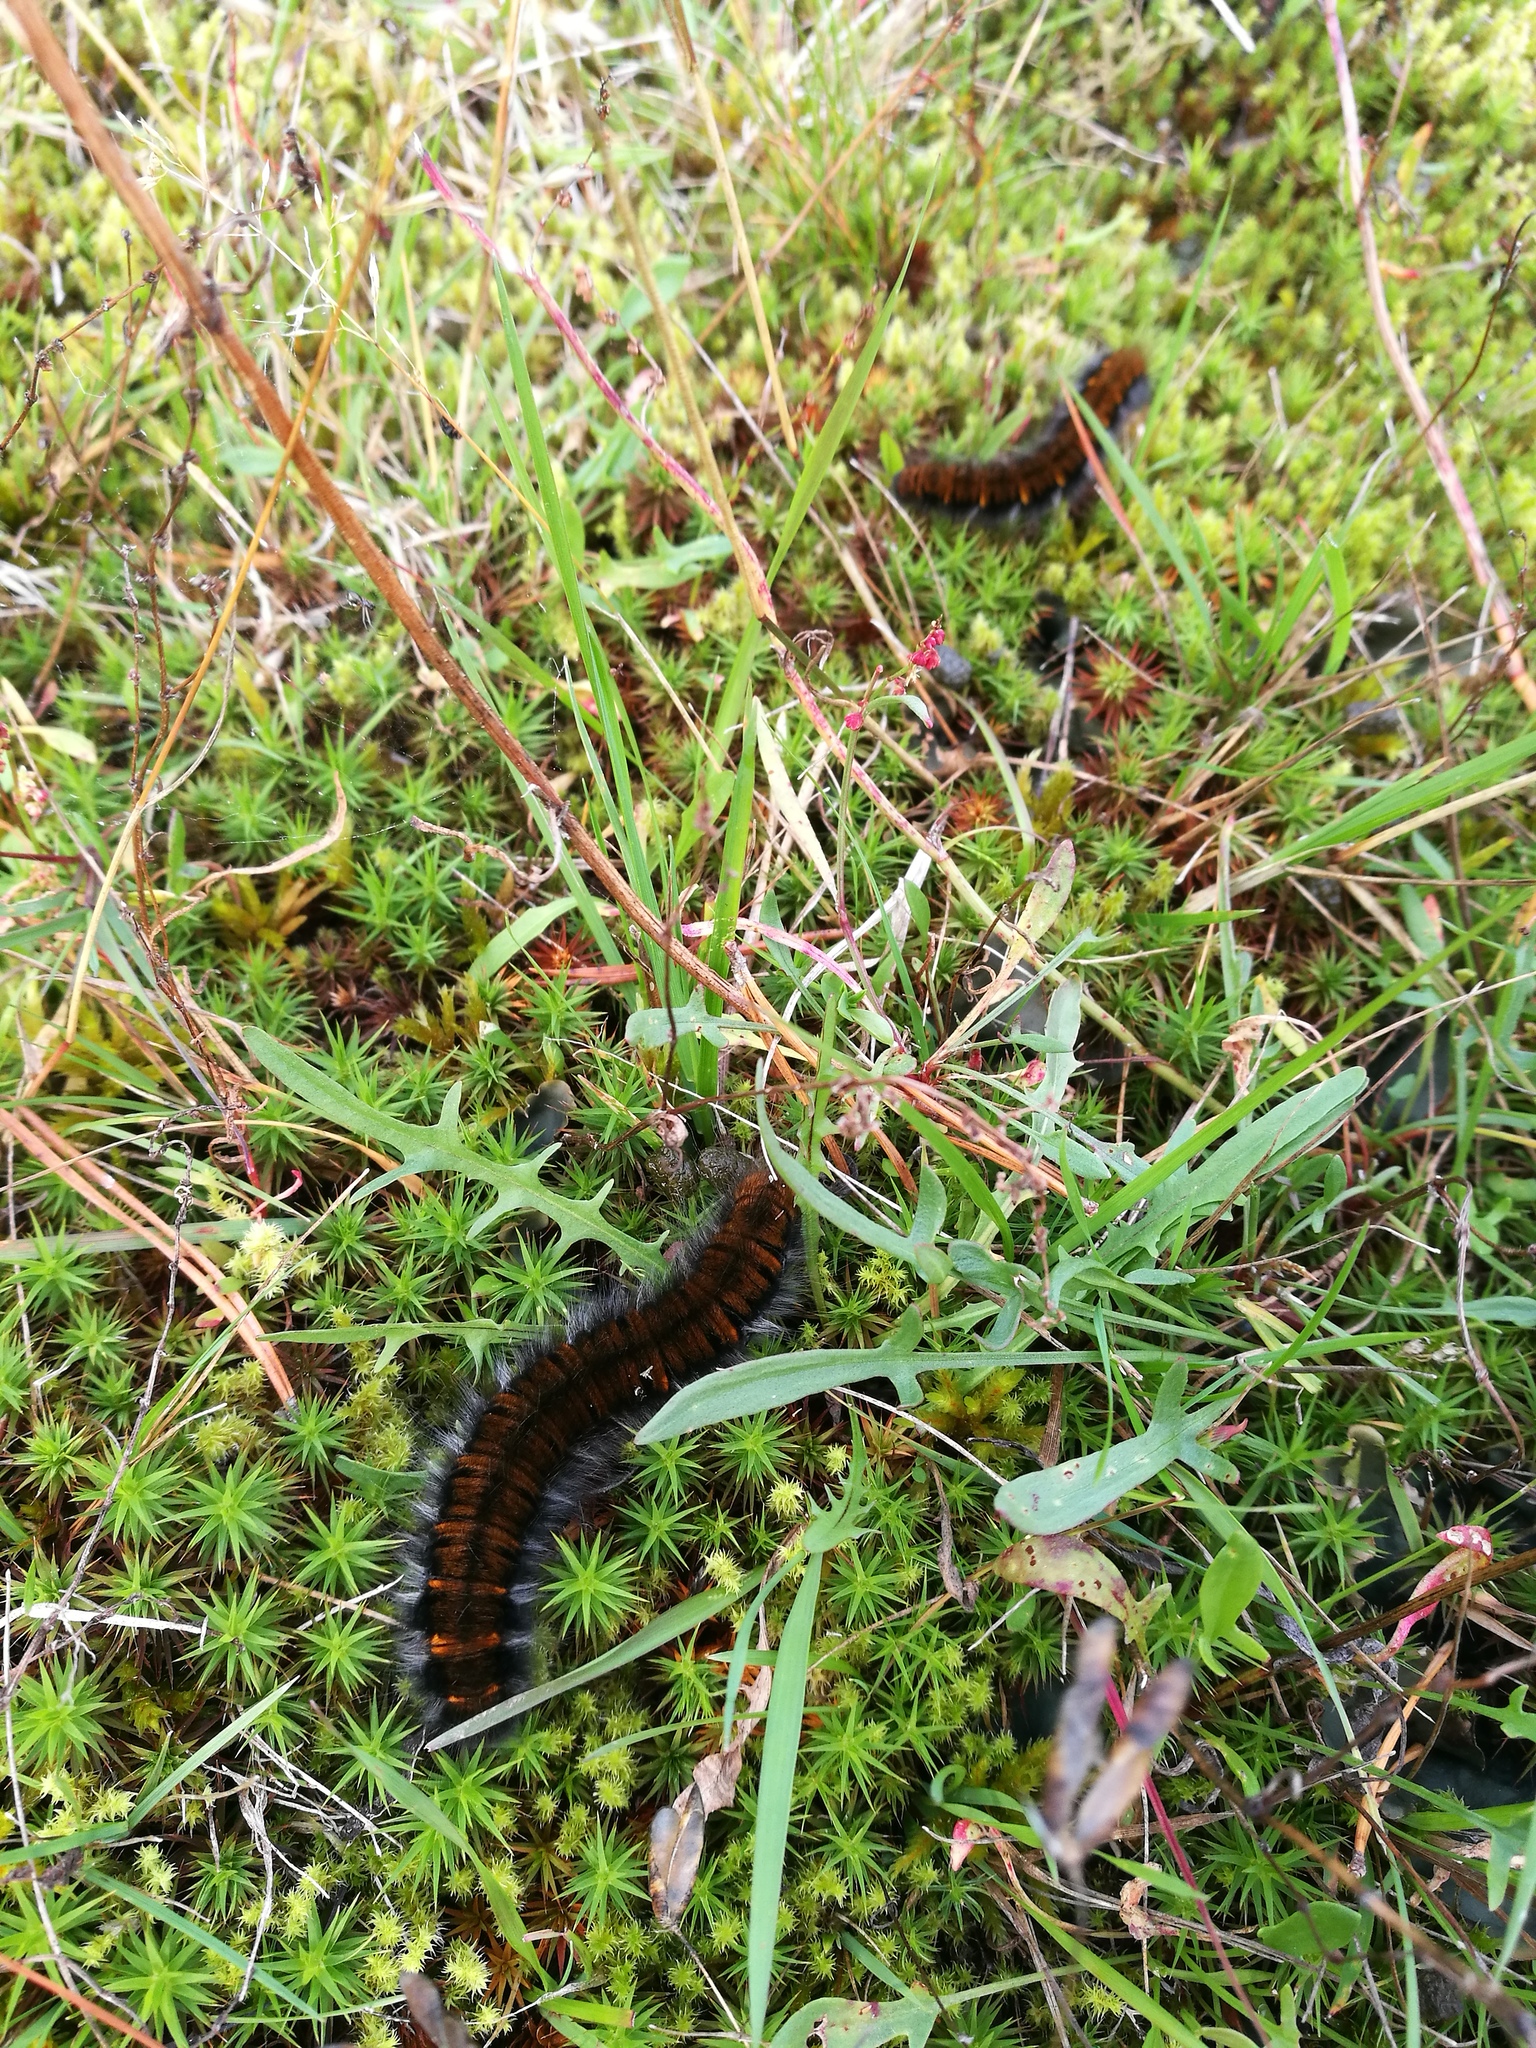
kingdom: Animalia
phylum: Arthropoda
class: Insecta
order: Lepidoptera
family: Lasiocampidae
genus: Macrothylacia
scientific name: Macrothylacia rubi
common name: Fox moth
